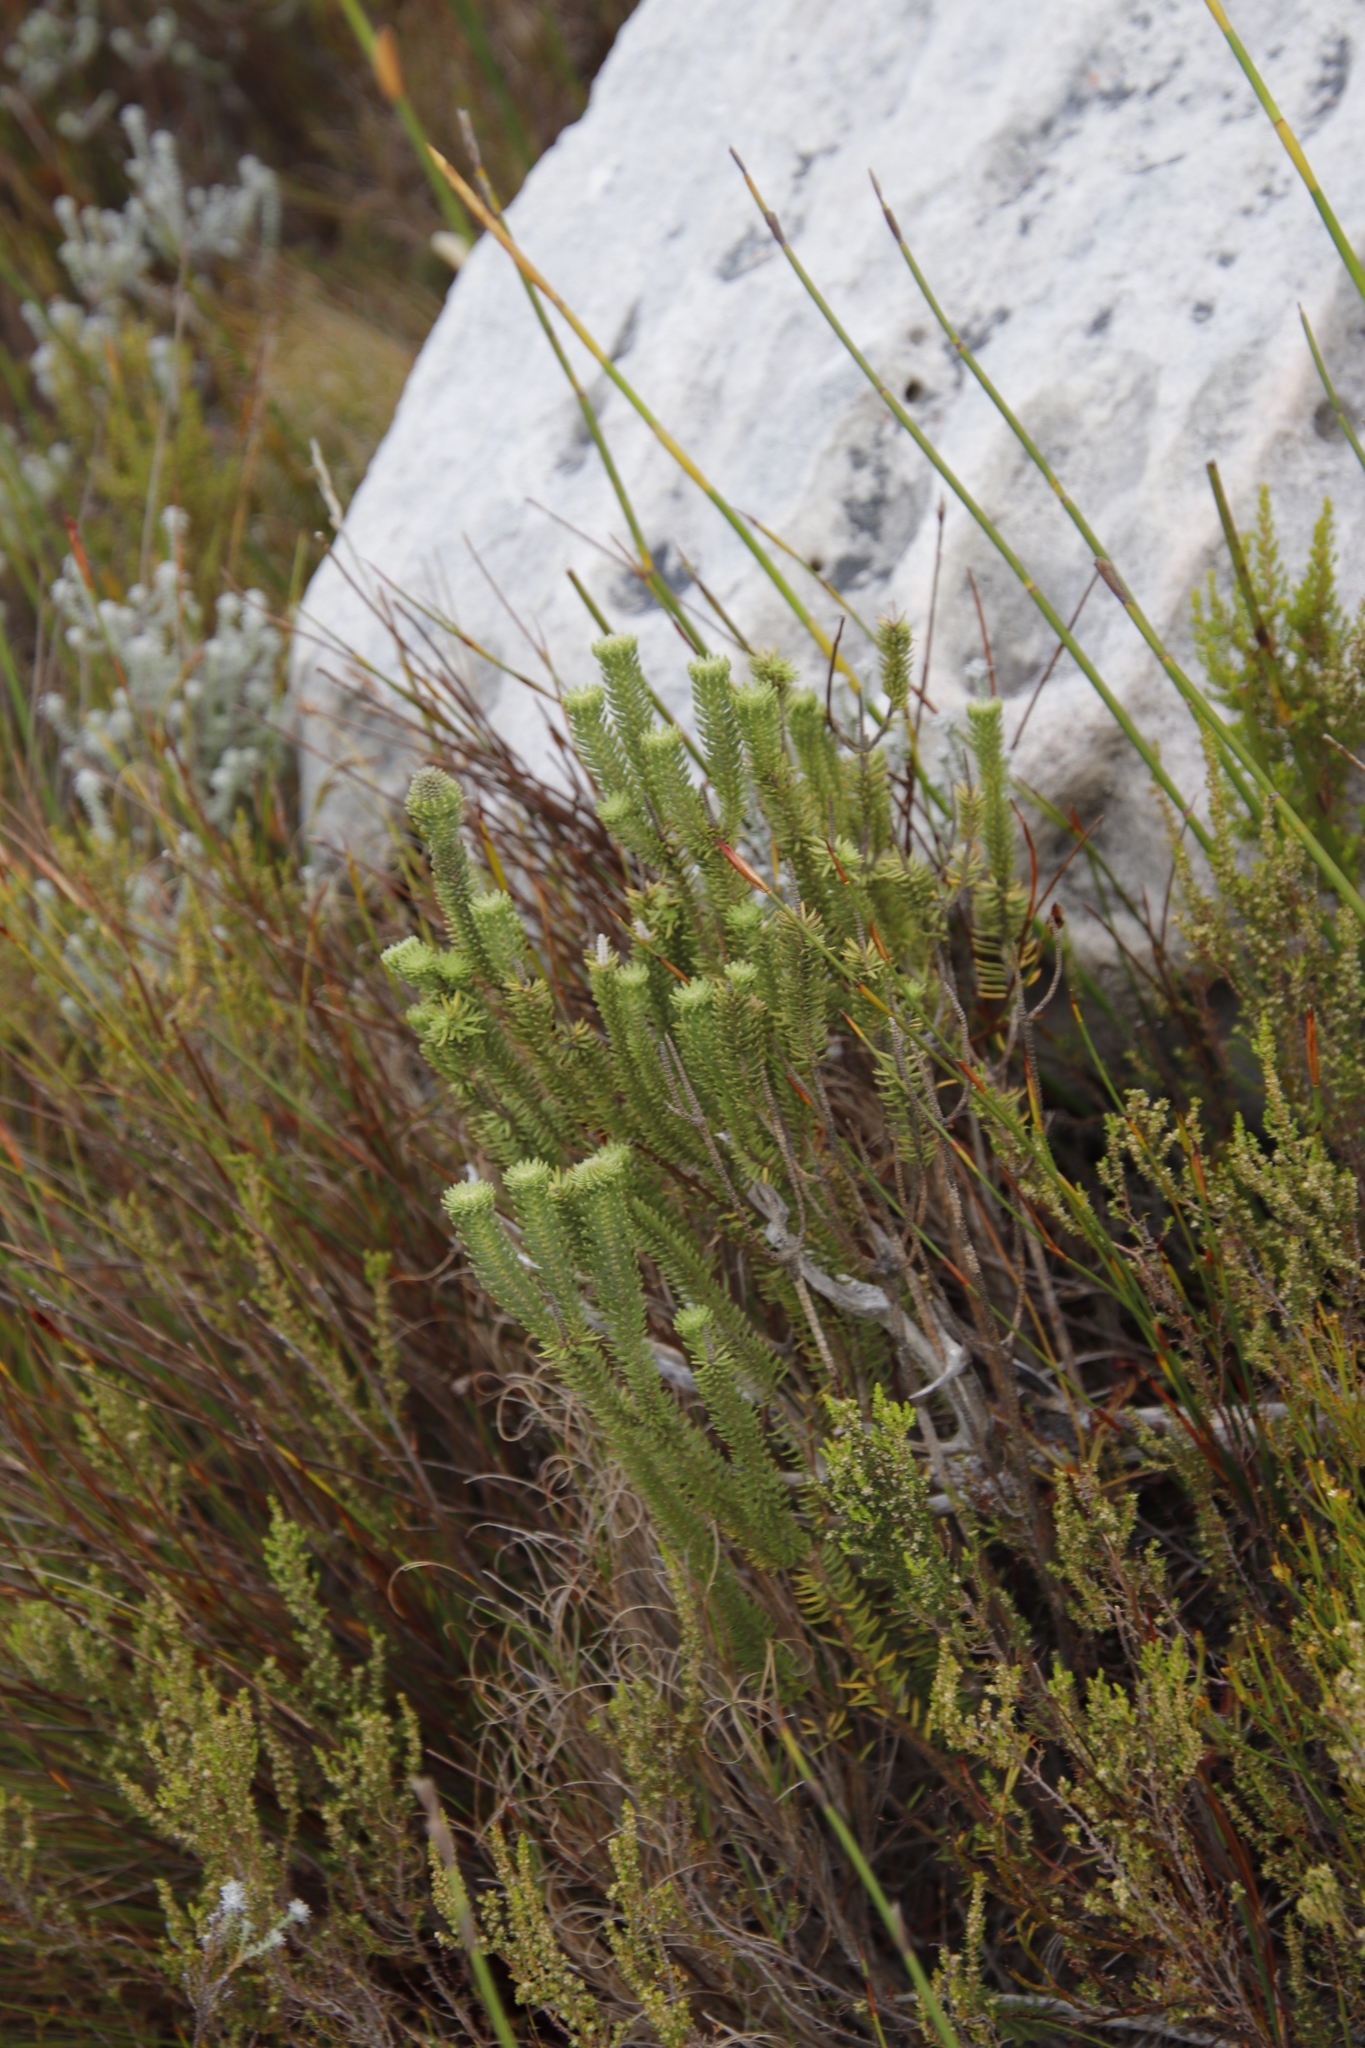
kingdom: Plantae
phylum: Tracheophyta
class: Magnoliopsida
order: Lamiales
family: Stilbaceae
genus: Stilbe
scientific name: Stilbe vestita
